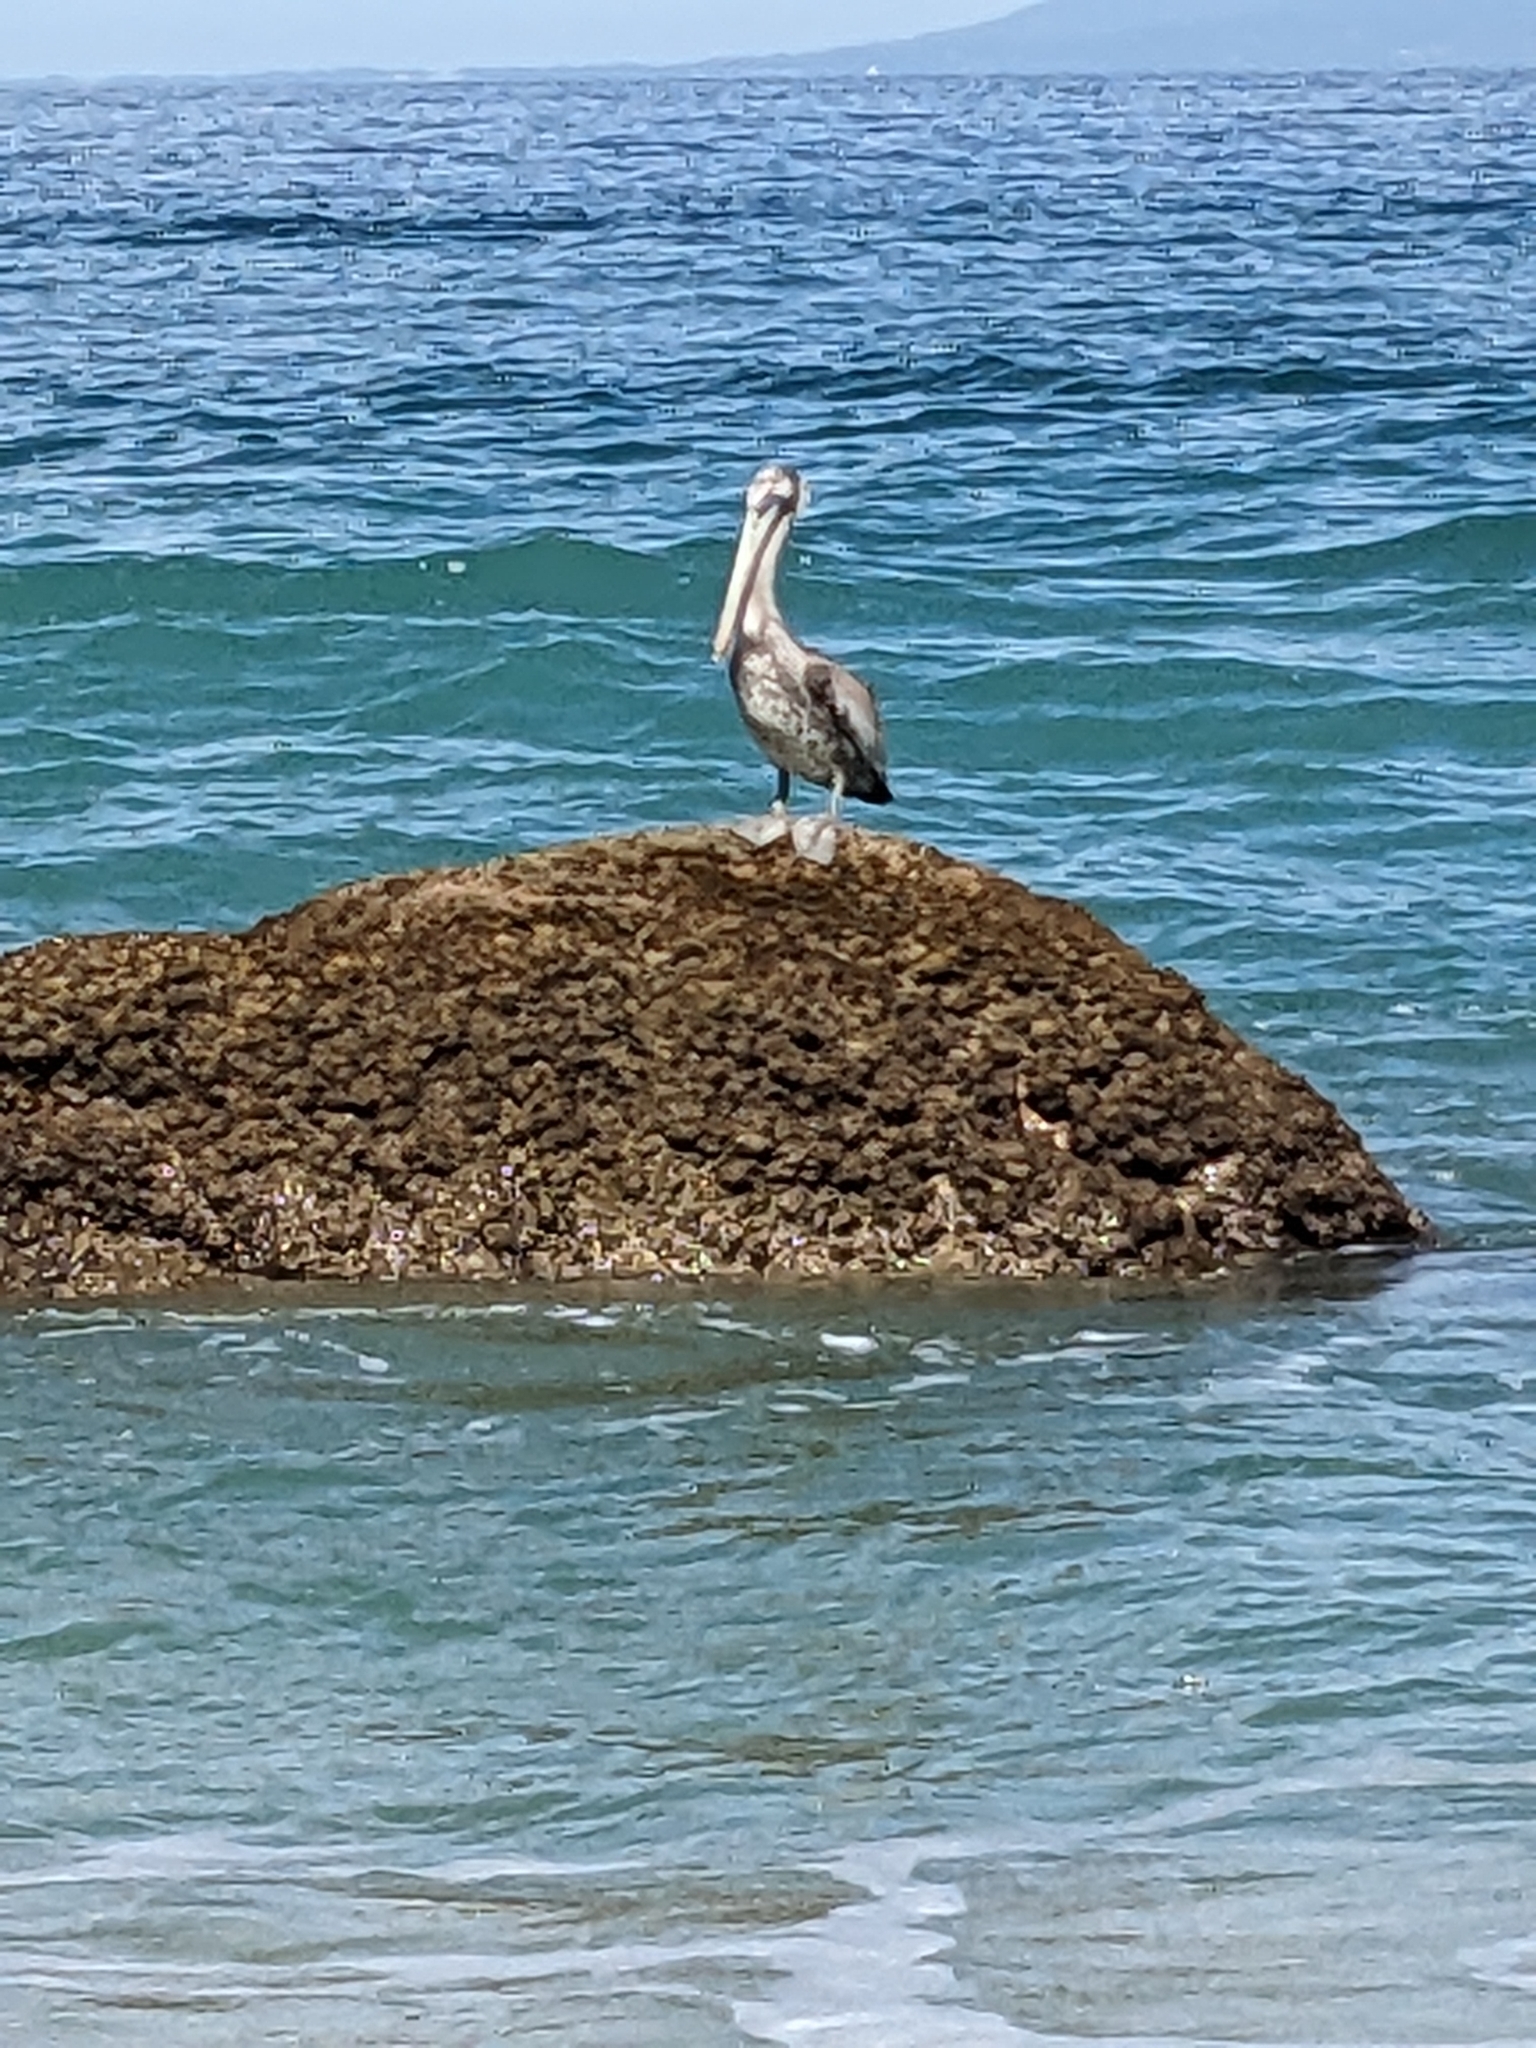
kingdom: Animalia
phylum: Chordata
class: Aves
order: Pelecaniformes
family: Pelecanidae
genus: Pelecanus
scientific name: Pelecanus occidentalis
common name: Brown pelican
